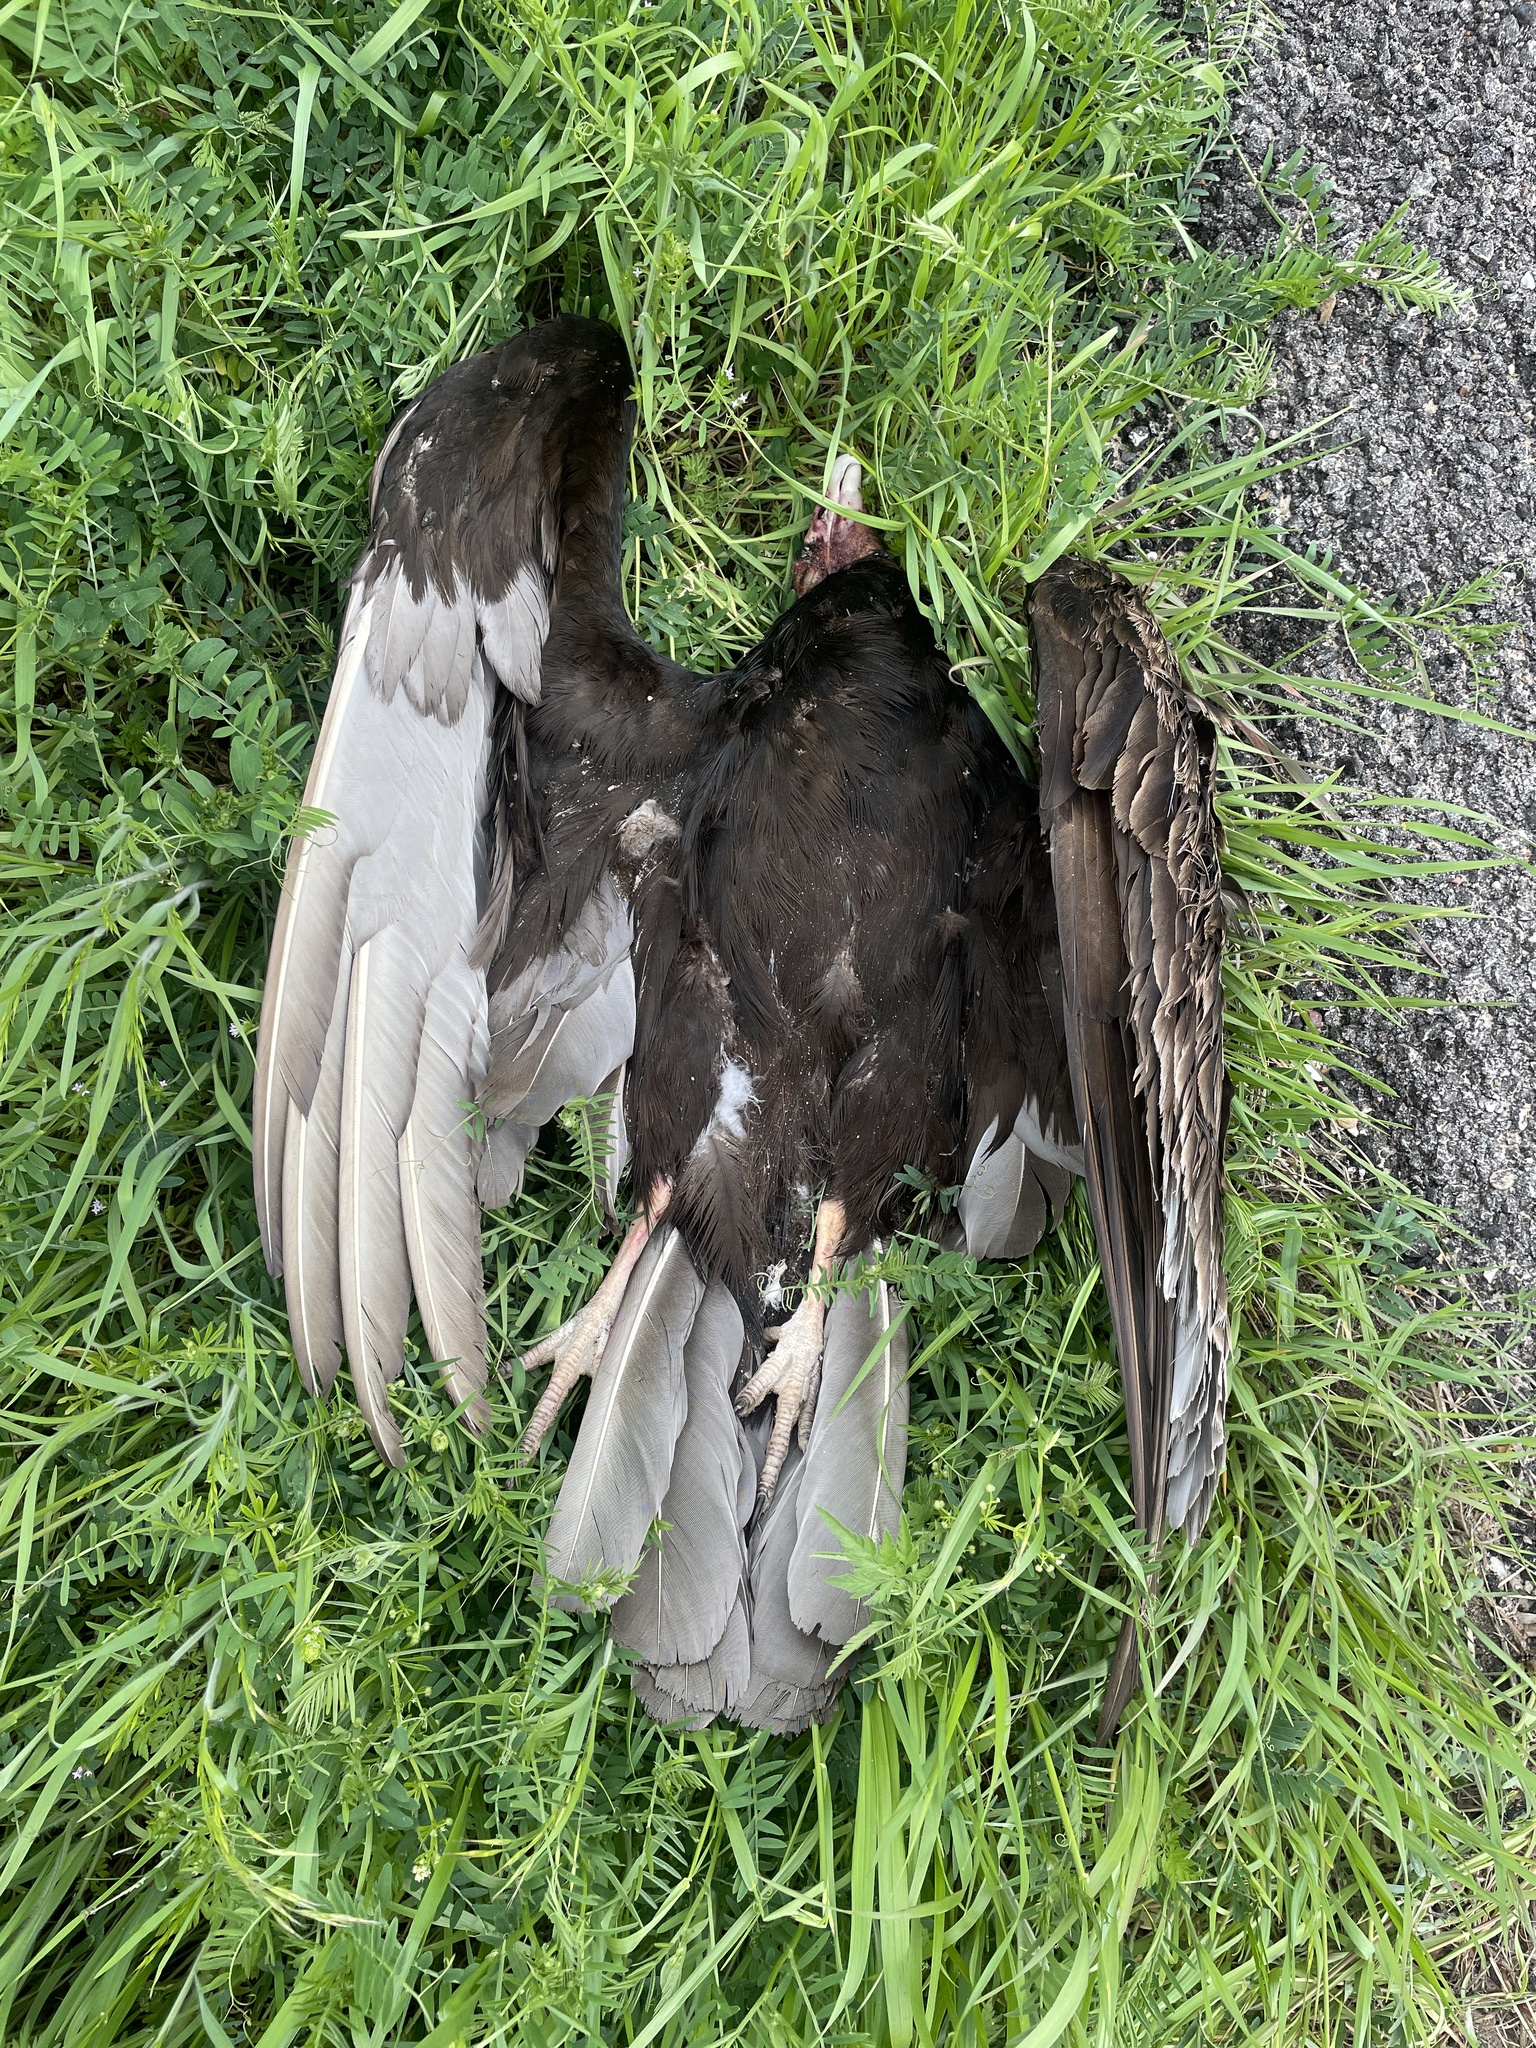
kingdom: Animalia
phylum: Chordata
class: Aves
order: Accipitriformes
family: Cathartidae
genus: Cathartes
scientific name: Cathartes aura
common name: Turkey vulture
